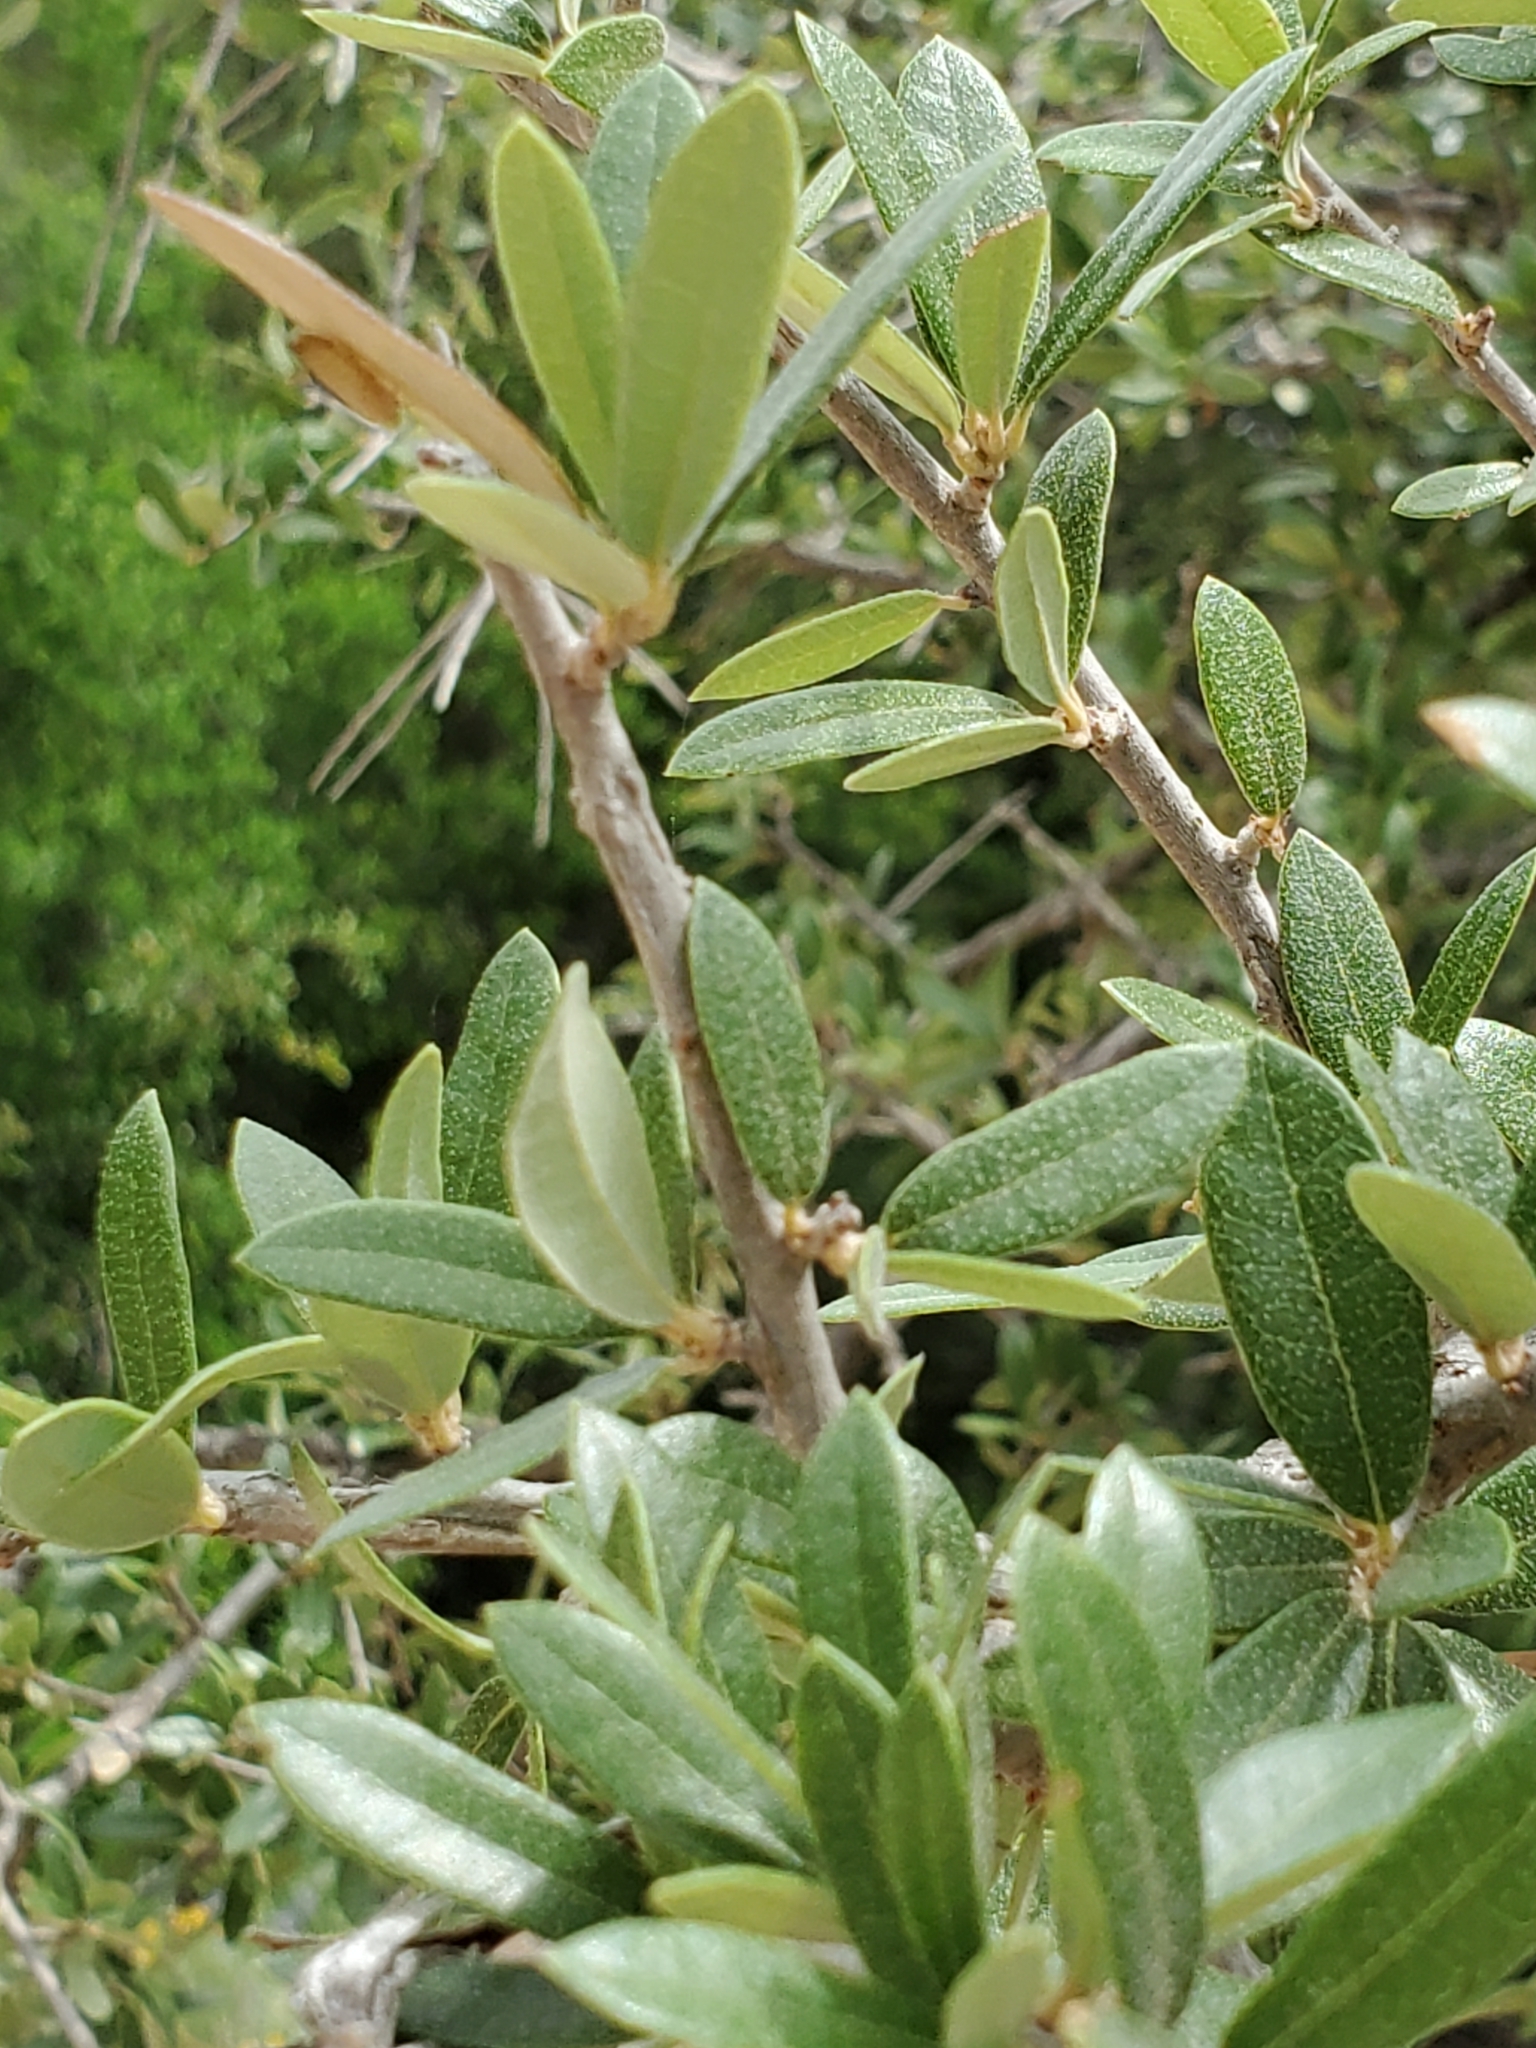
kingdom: Plantae
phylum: Tracheophyta
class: Magnoliopsida
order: Fagales
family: Fagaceae
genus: Quercus
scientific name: Quercus fusiformis
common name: Texas live oak
